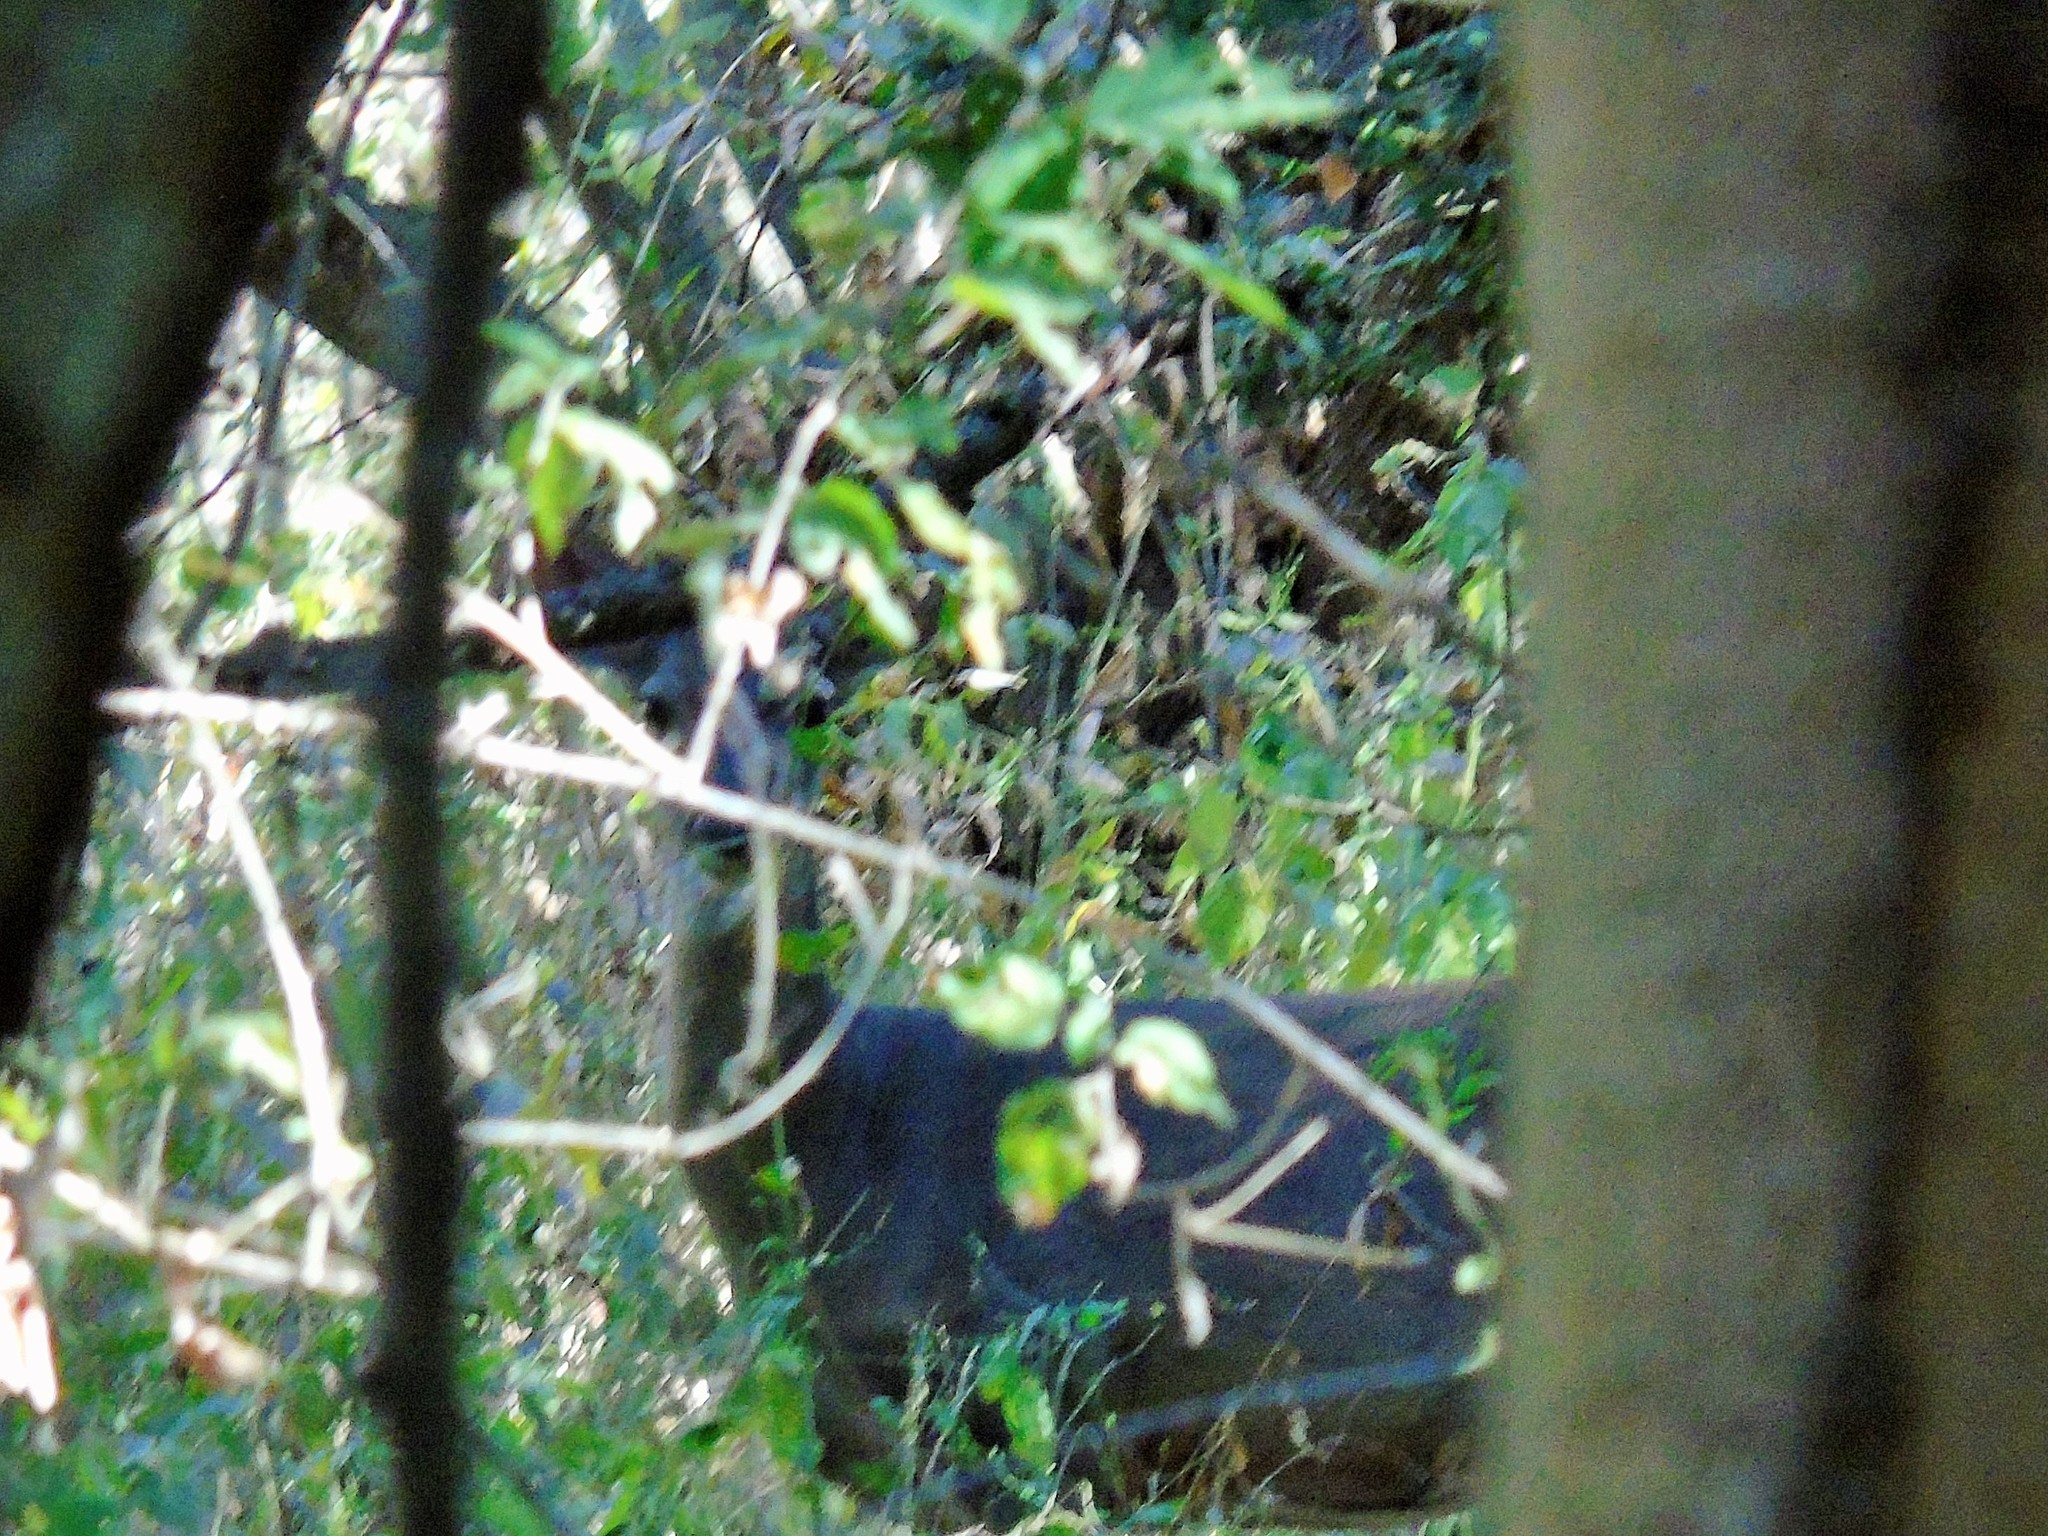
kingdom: Animalia
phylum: Chordata
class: Mammalia
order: Artiodactyla
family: Cervidae
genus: Odocoileus
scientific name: Odocoileus virginianus
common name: White-tailed deer
